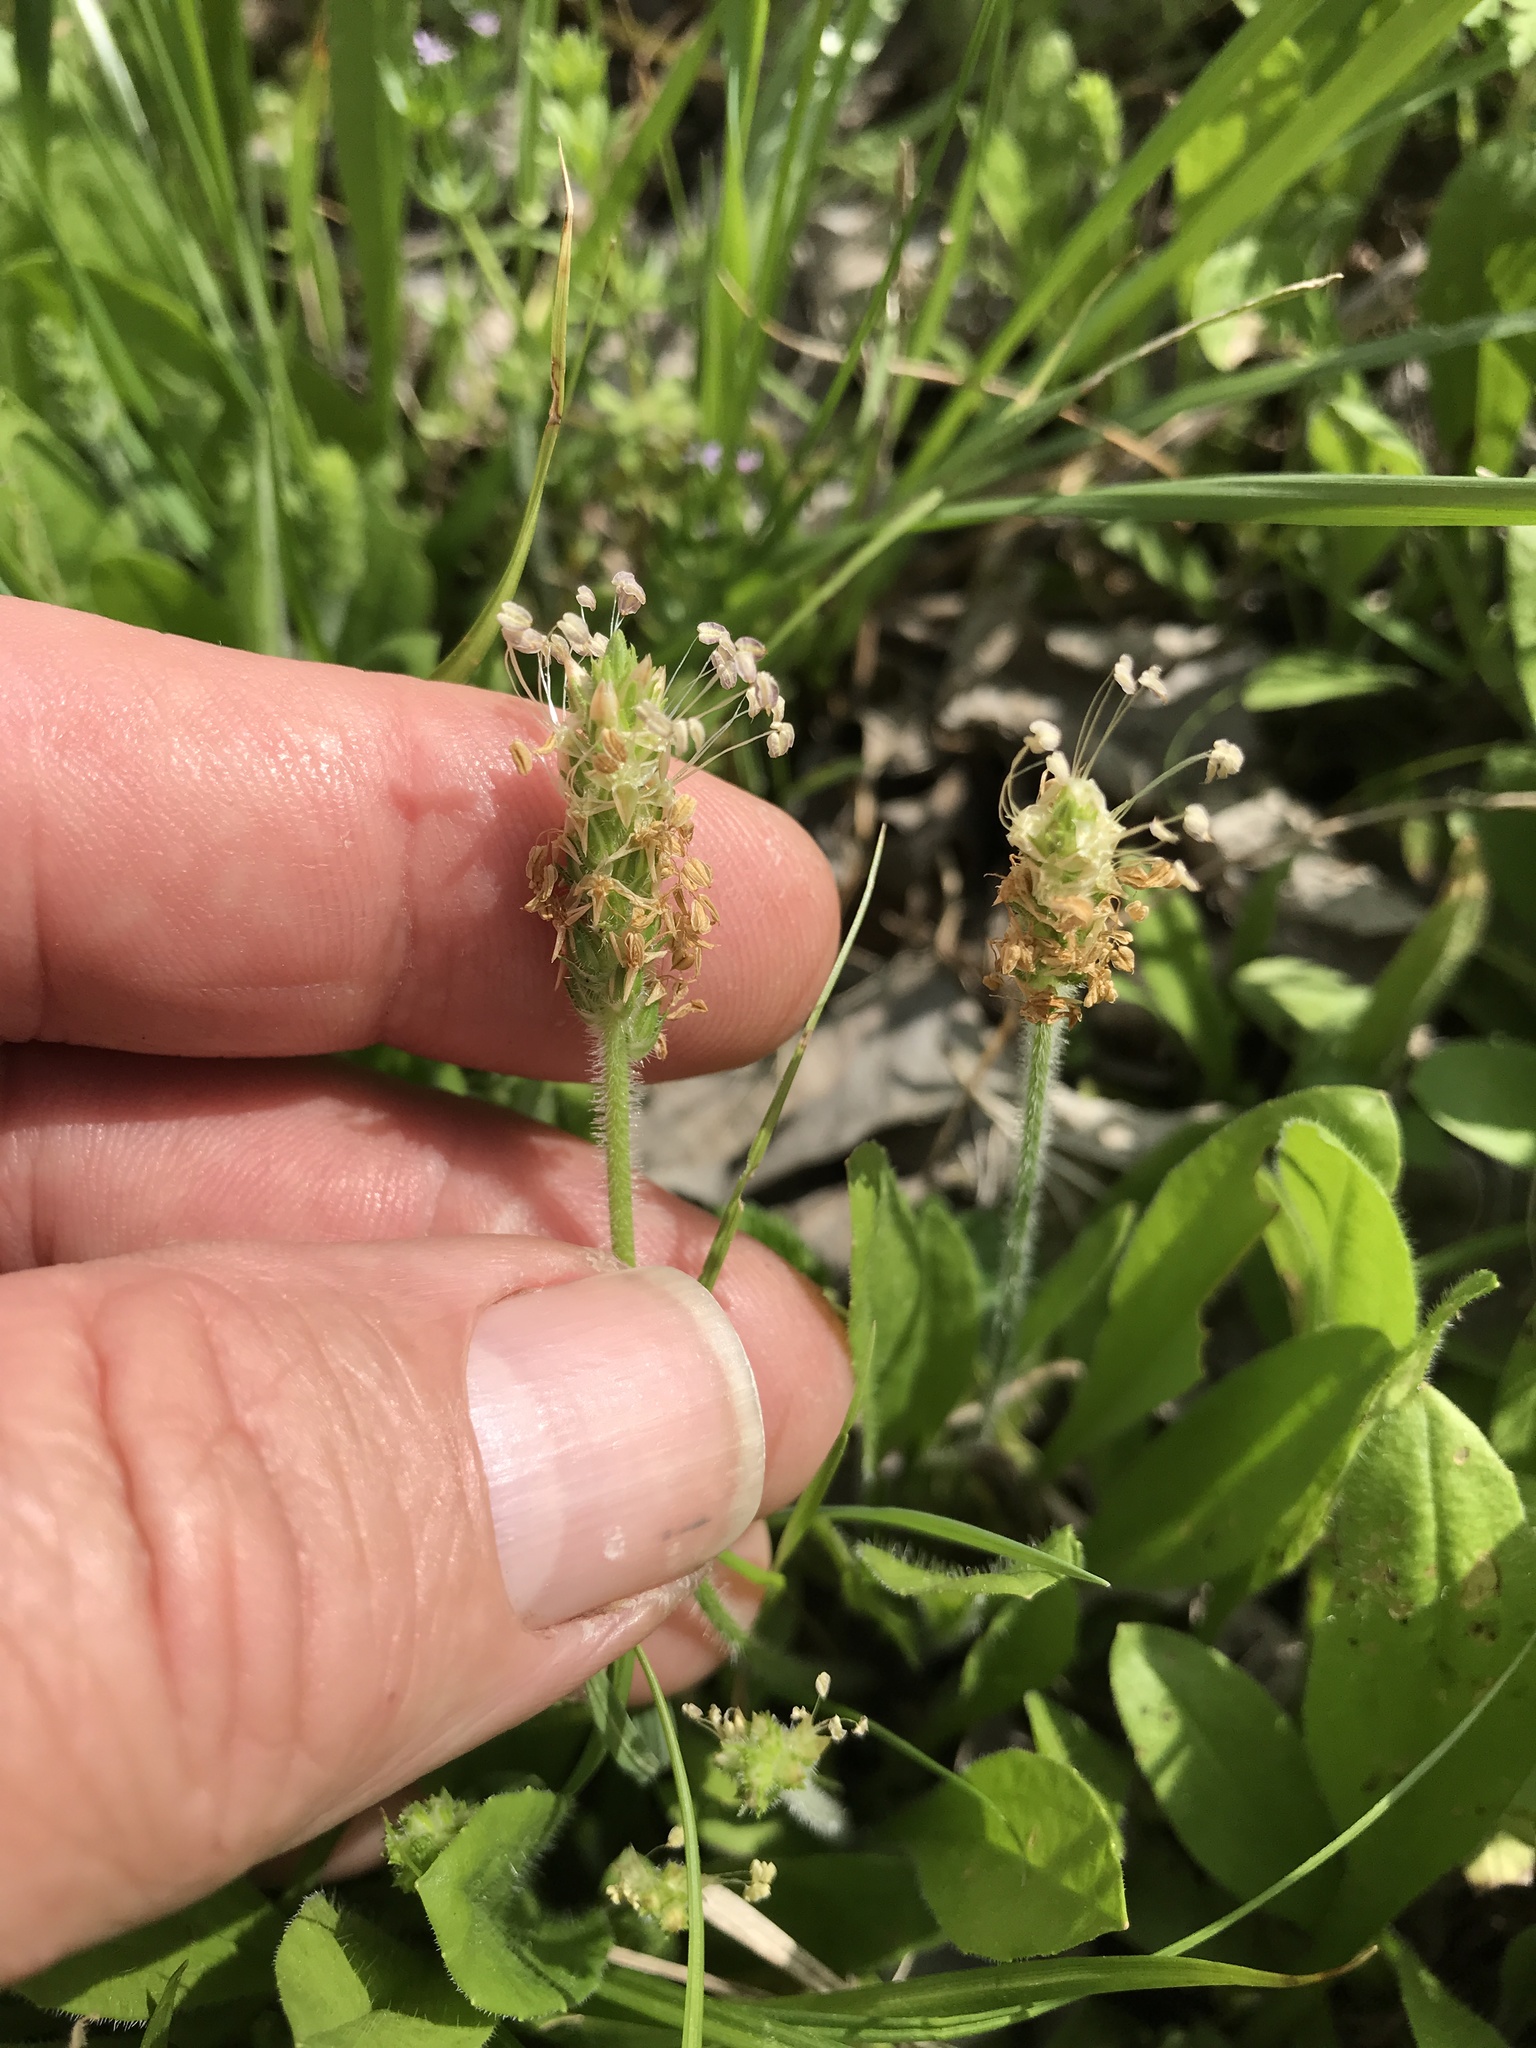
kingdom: Plantae
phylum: Tracheophyta
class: Magnoliopsida
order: Lamiales
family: Plantaginaceae
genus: Plantago
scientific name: Plantago virginica
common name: Hoary plantain
